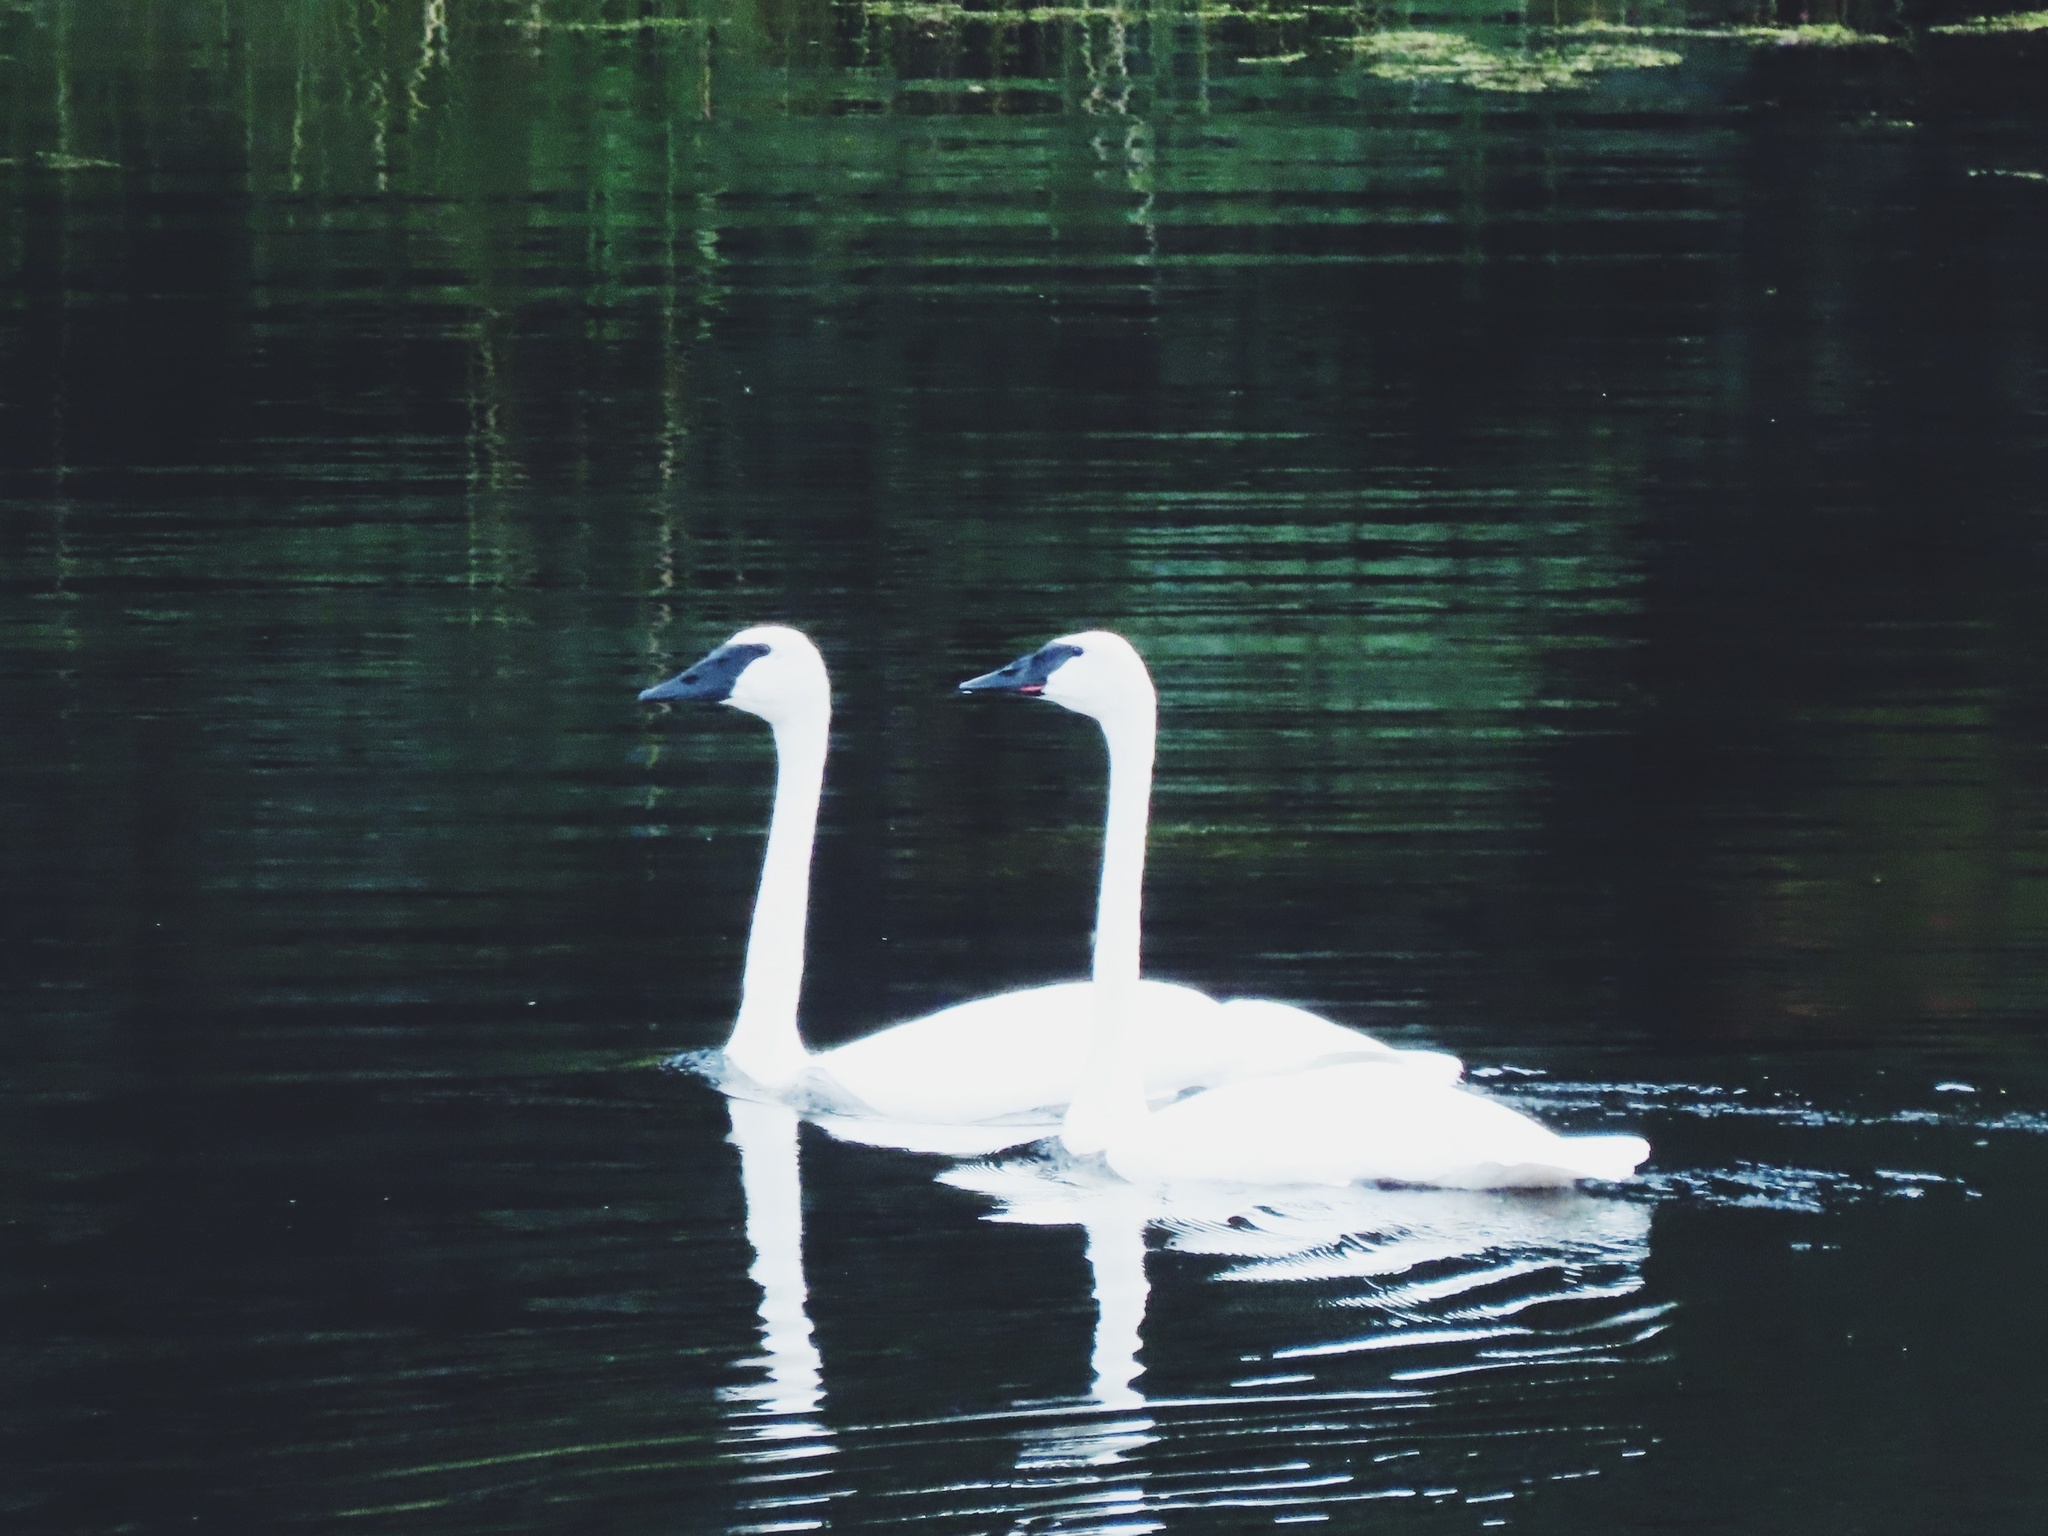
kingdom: Animalia
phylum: Chordata
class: Aves
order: Anseriformes
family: Anatidae
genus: Cygnus
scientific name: Cygnus buccinator
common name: Trumpeter swan
